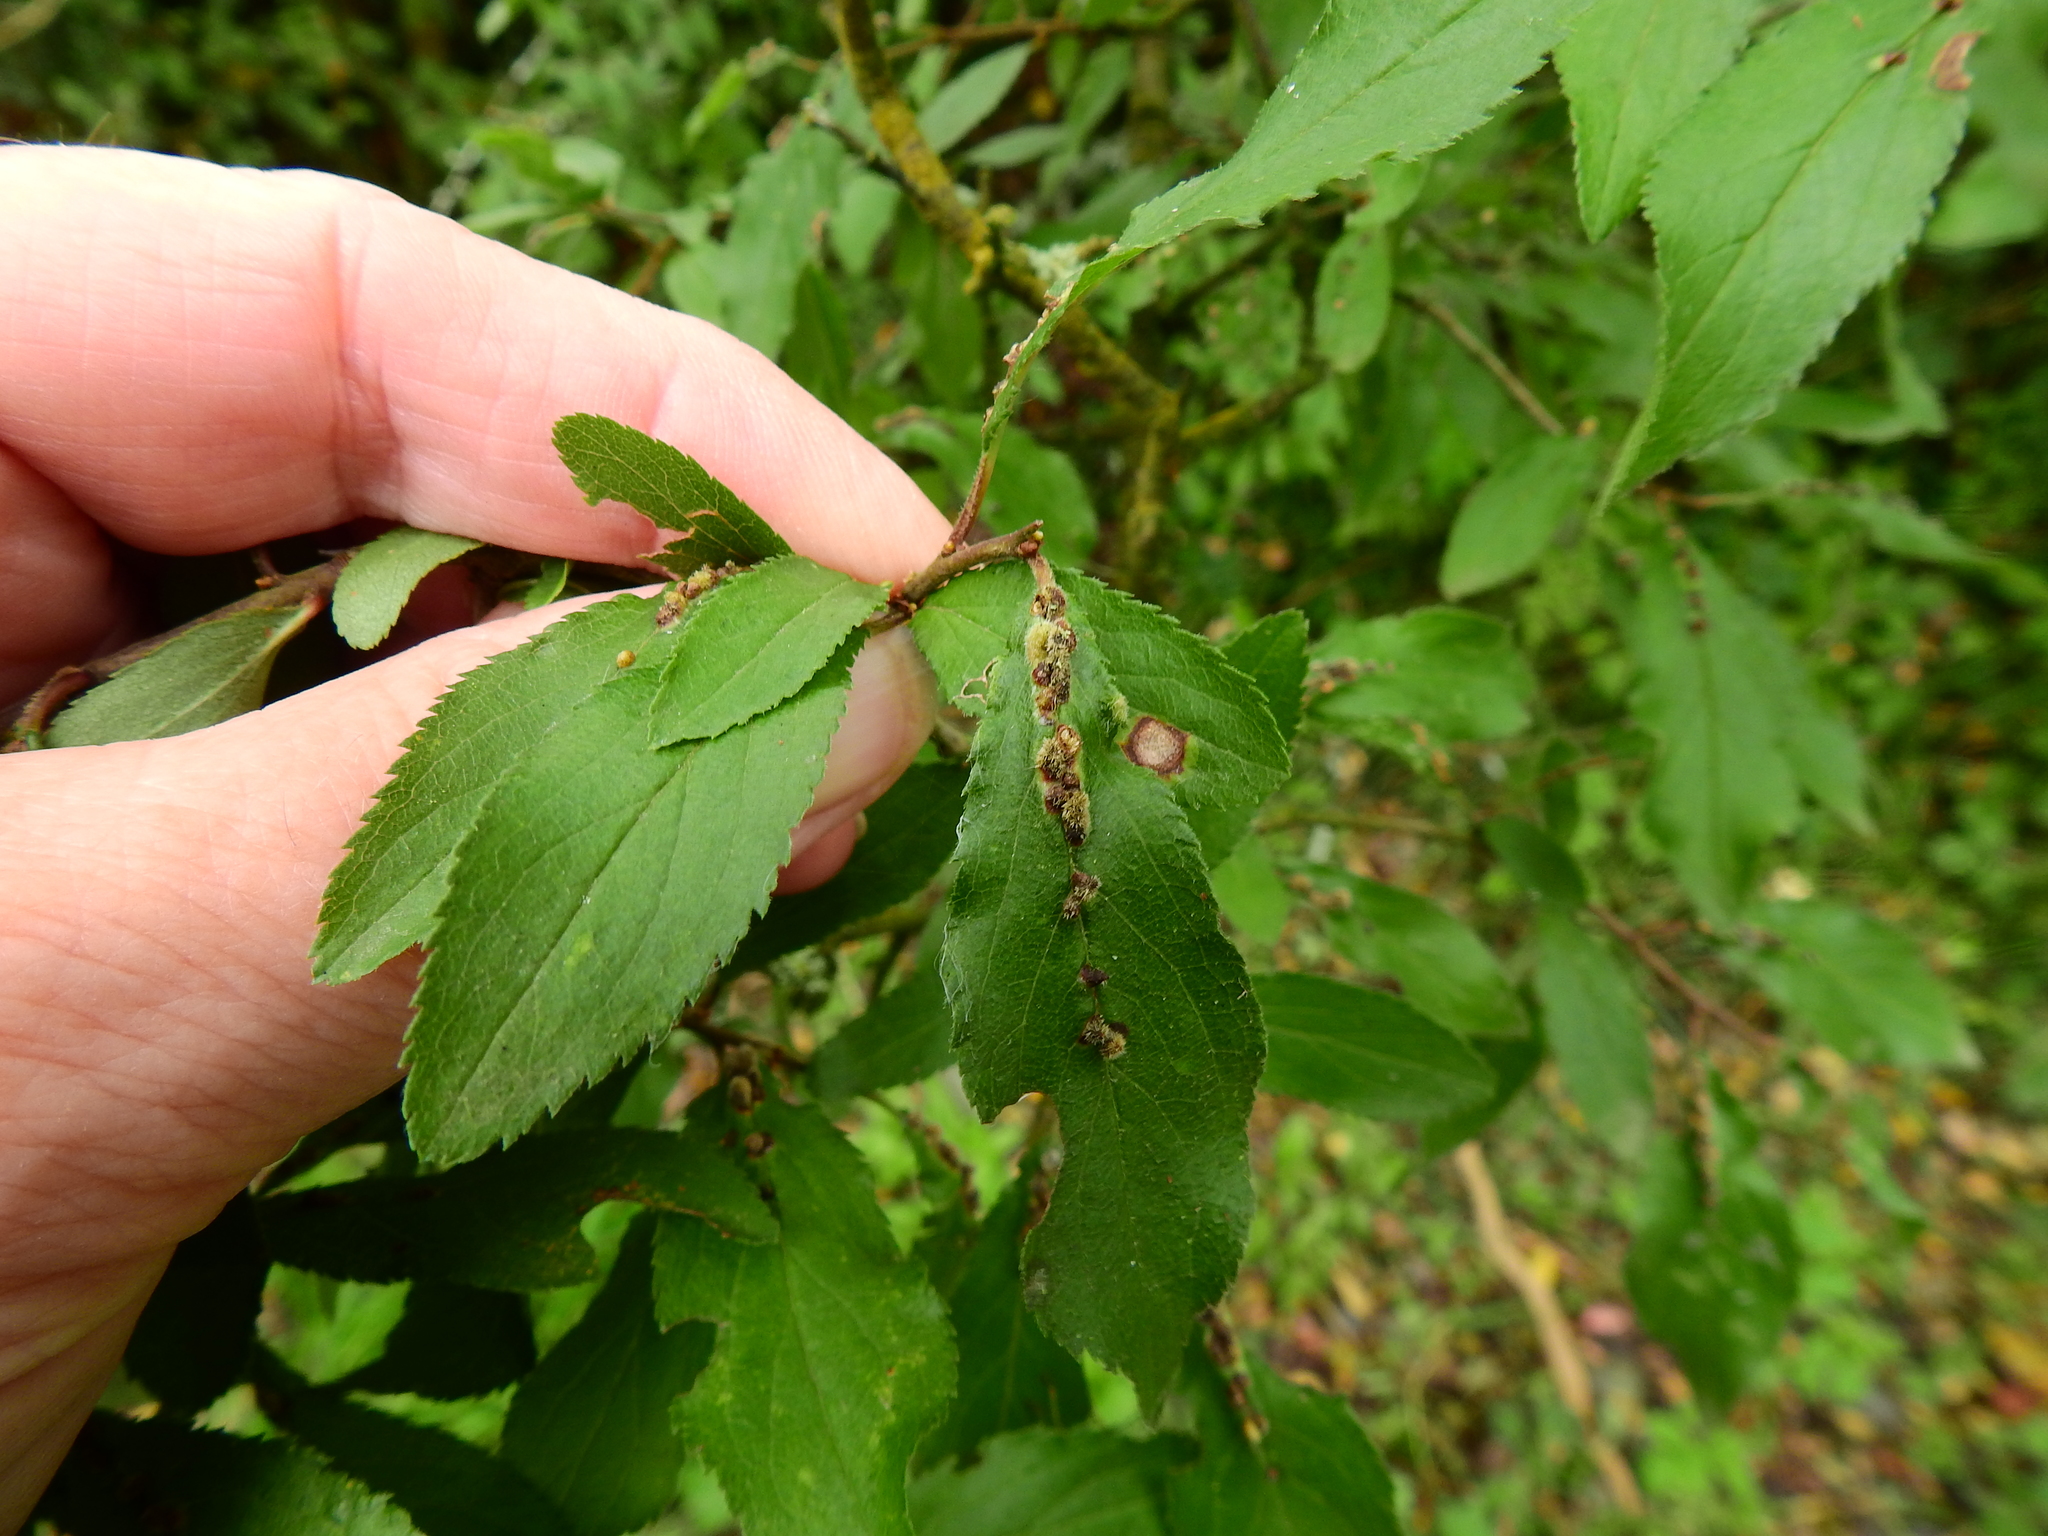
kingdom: Animalia
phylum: Arthropoda
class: Arachnida
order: Trombidiformes
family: Eriophyidae
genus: Eriophyes
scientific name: Eriophyes homophyllus
